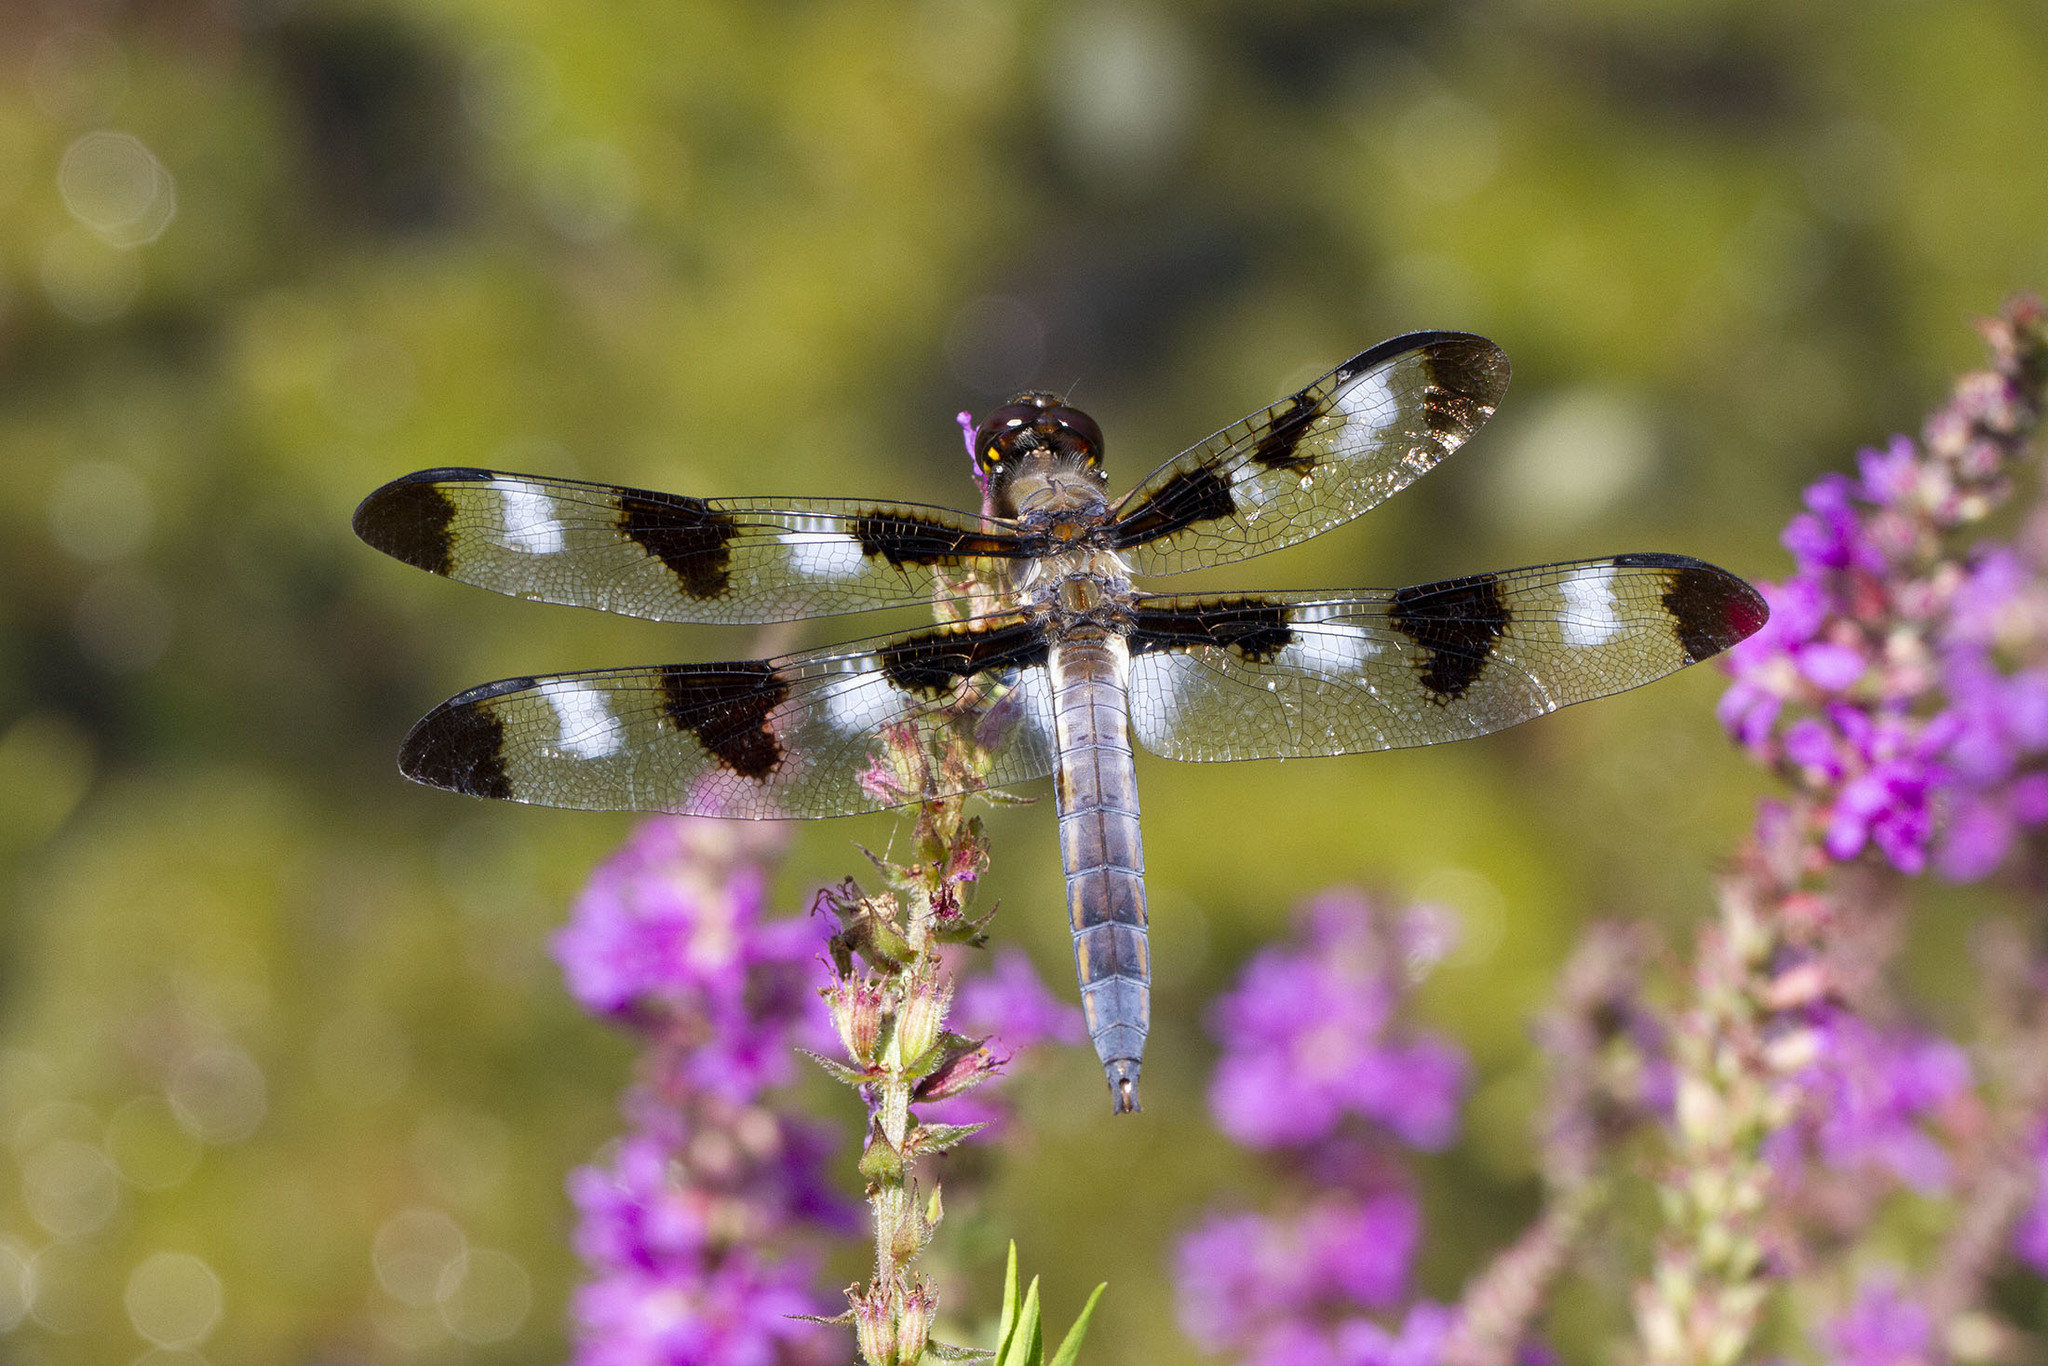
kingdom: Animalia
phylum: Arthropoda
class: Insecta
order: Odonata
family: Libellulidae
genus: Libellula
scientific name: Libellula pulchella
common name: Twelve-spotted skimmer
